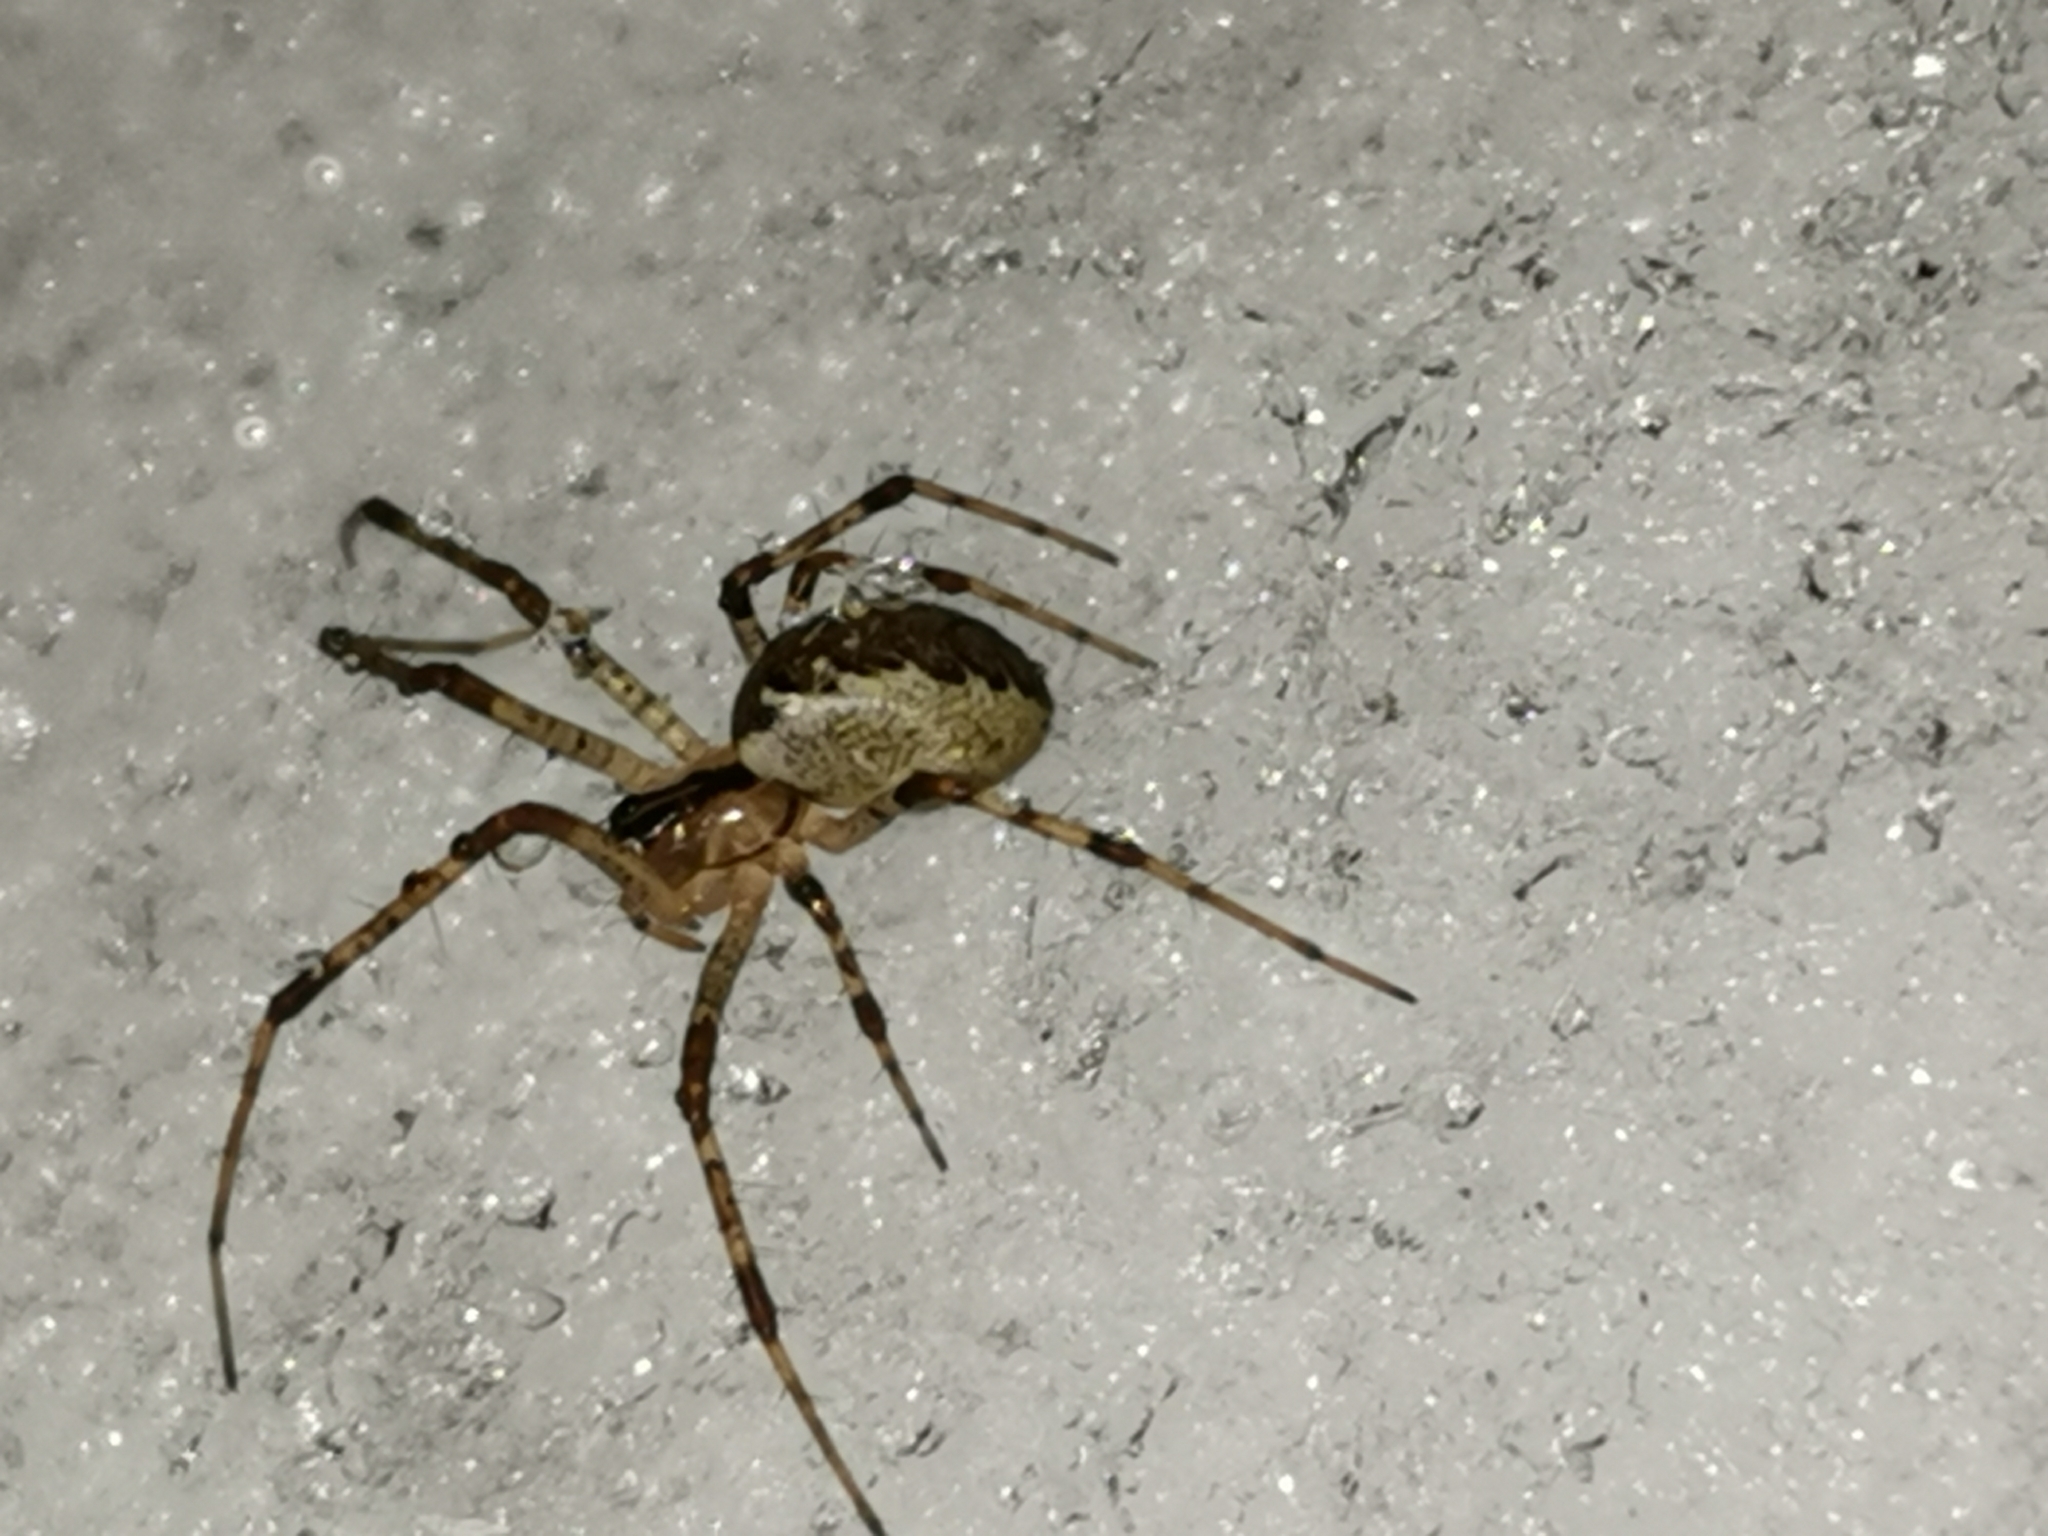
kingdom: Animalia
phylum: Arthropoda
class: Arachnida
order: Araneae
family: Linyphiidae
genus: Pityohyphantes
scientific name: Pityohyphantes phrygianus
